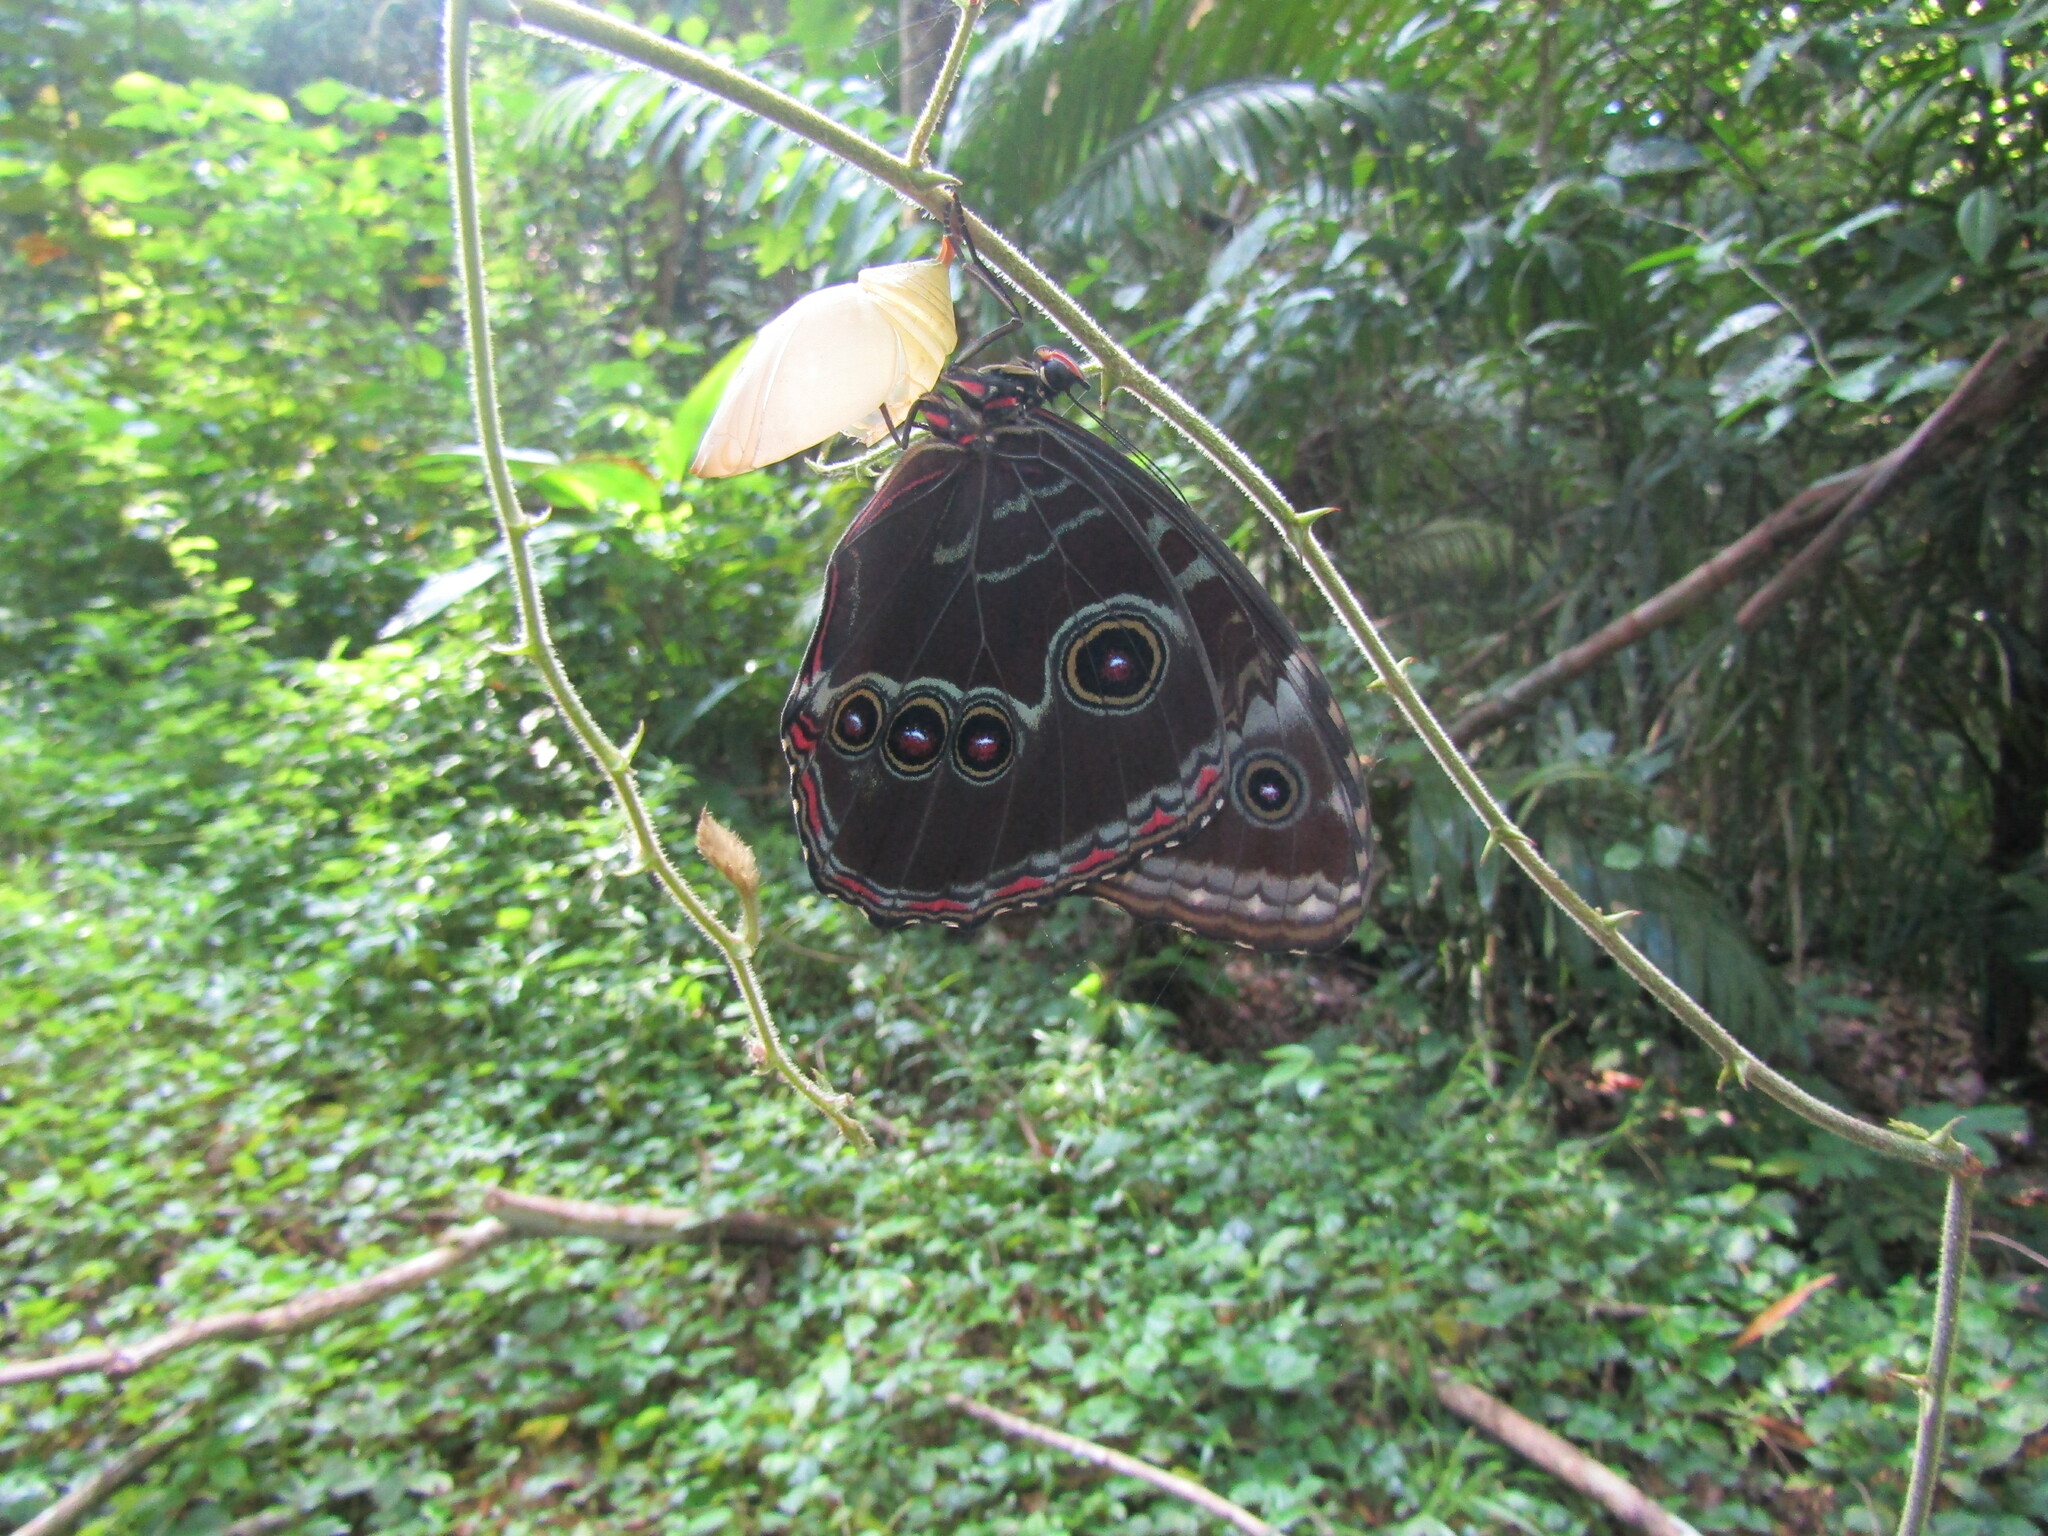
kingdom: Animalia
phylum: Arthropoda
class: Insecta
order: Lepidoptera
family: Nymphalidae
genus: Morpho
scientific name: Morpho helenor
